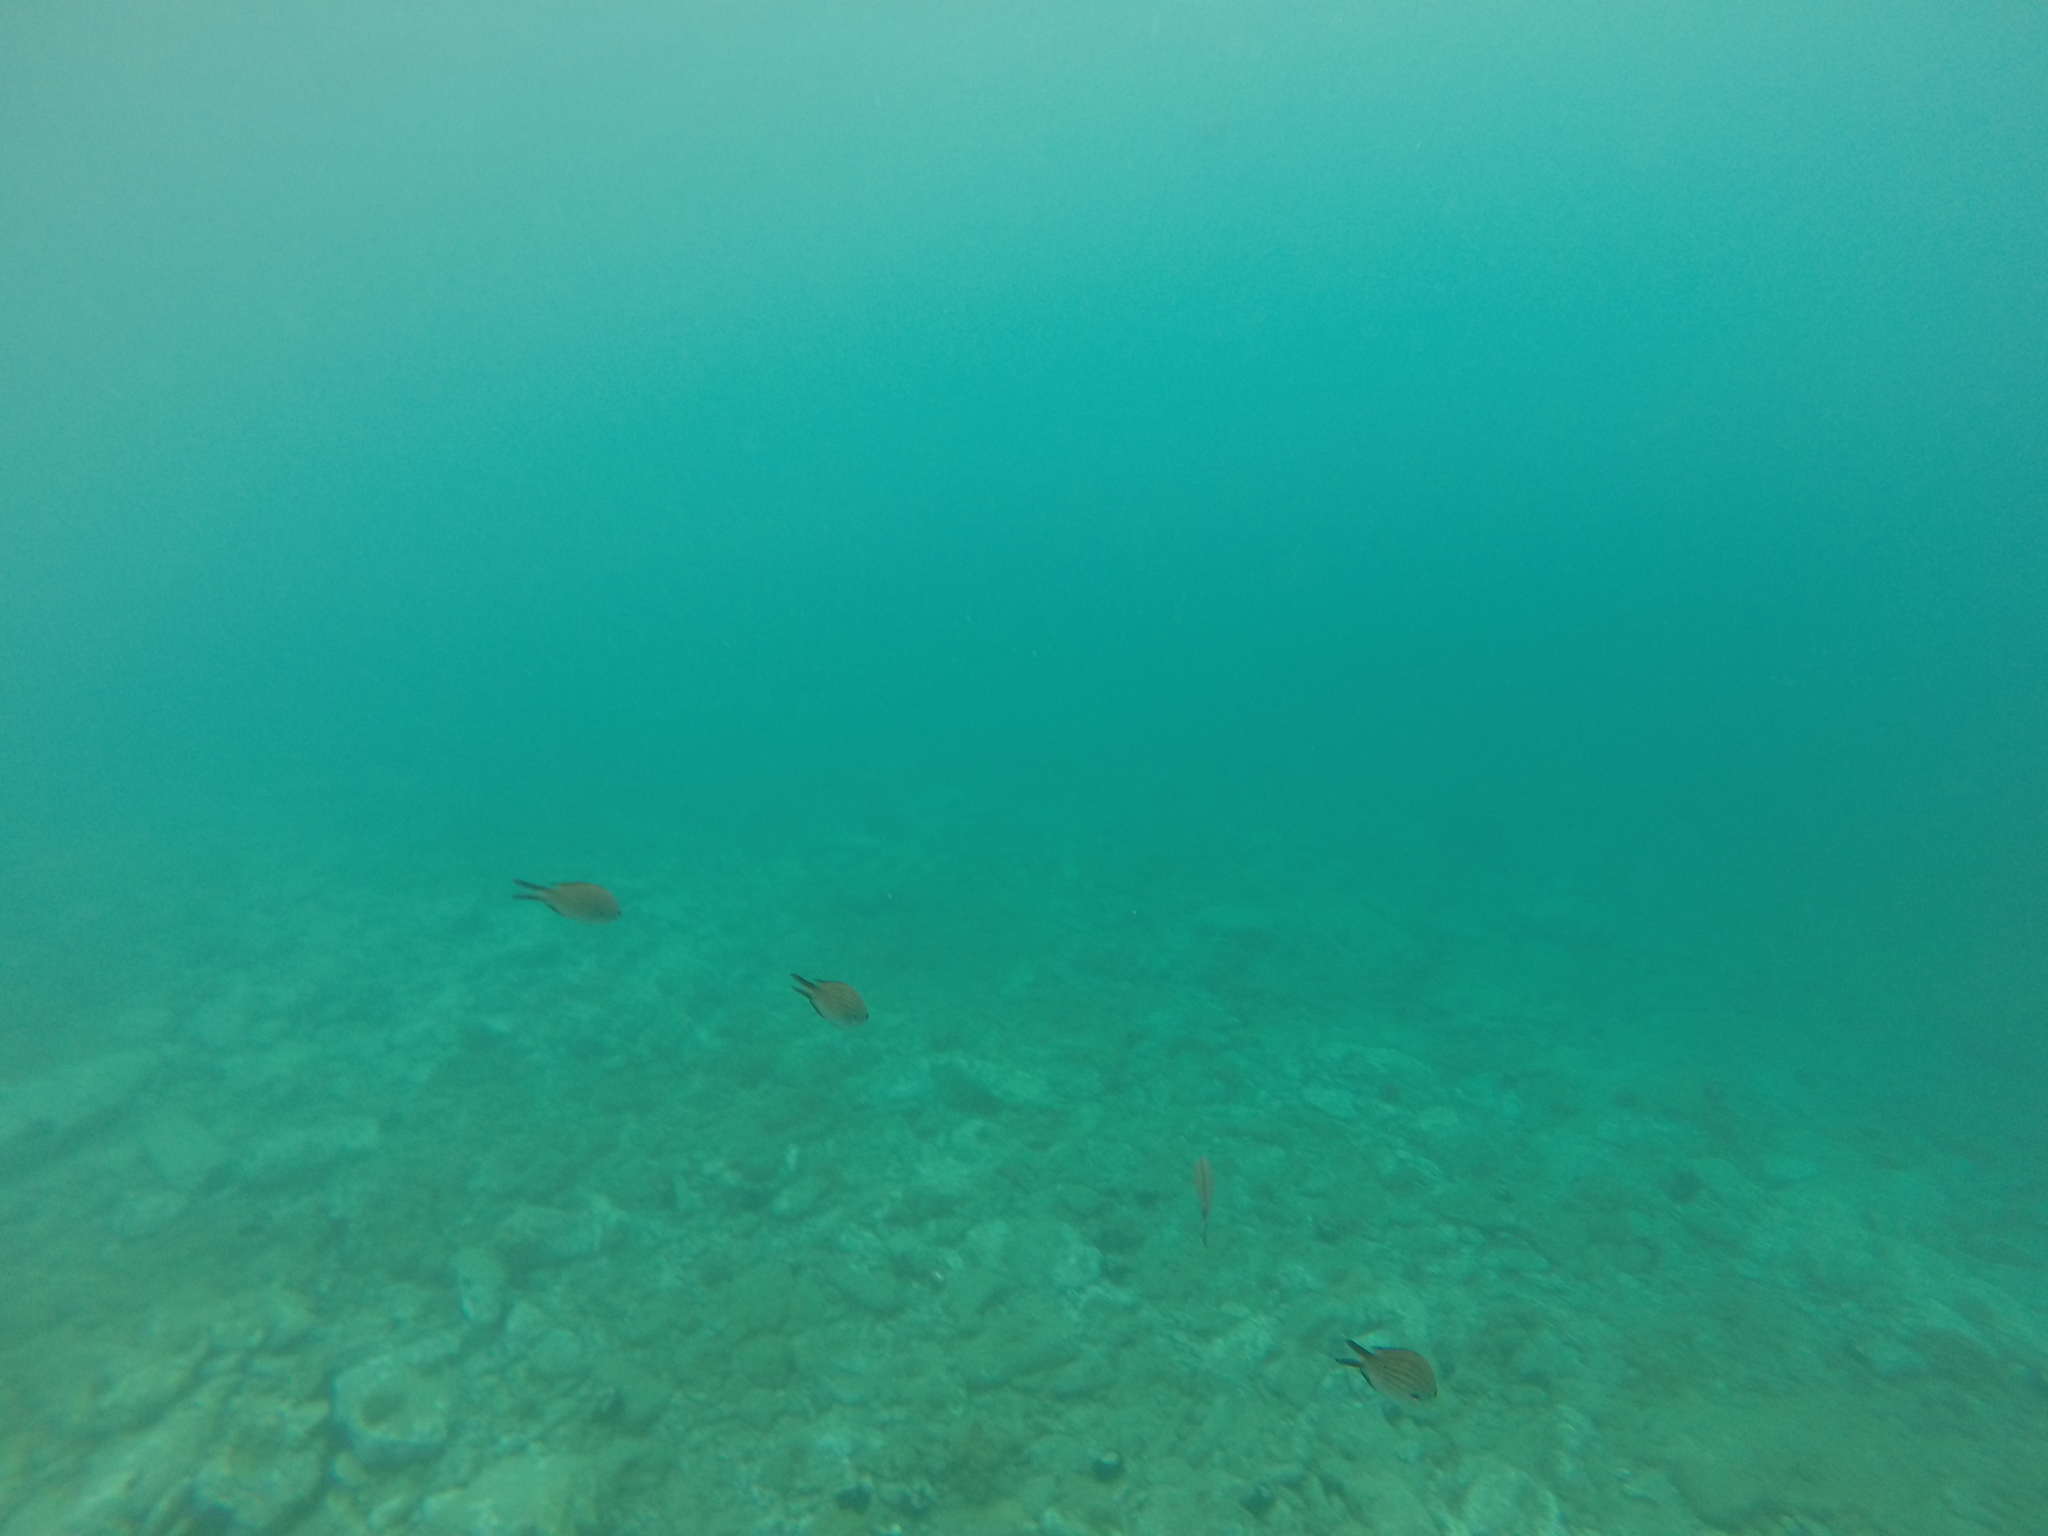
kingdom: Animalia
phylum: Chordata
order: Perciformes
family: Pomacentridae
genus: Chromis
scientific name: Chromis chromis
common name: Damselfish
